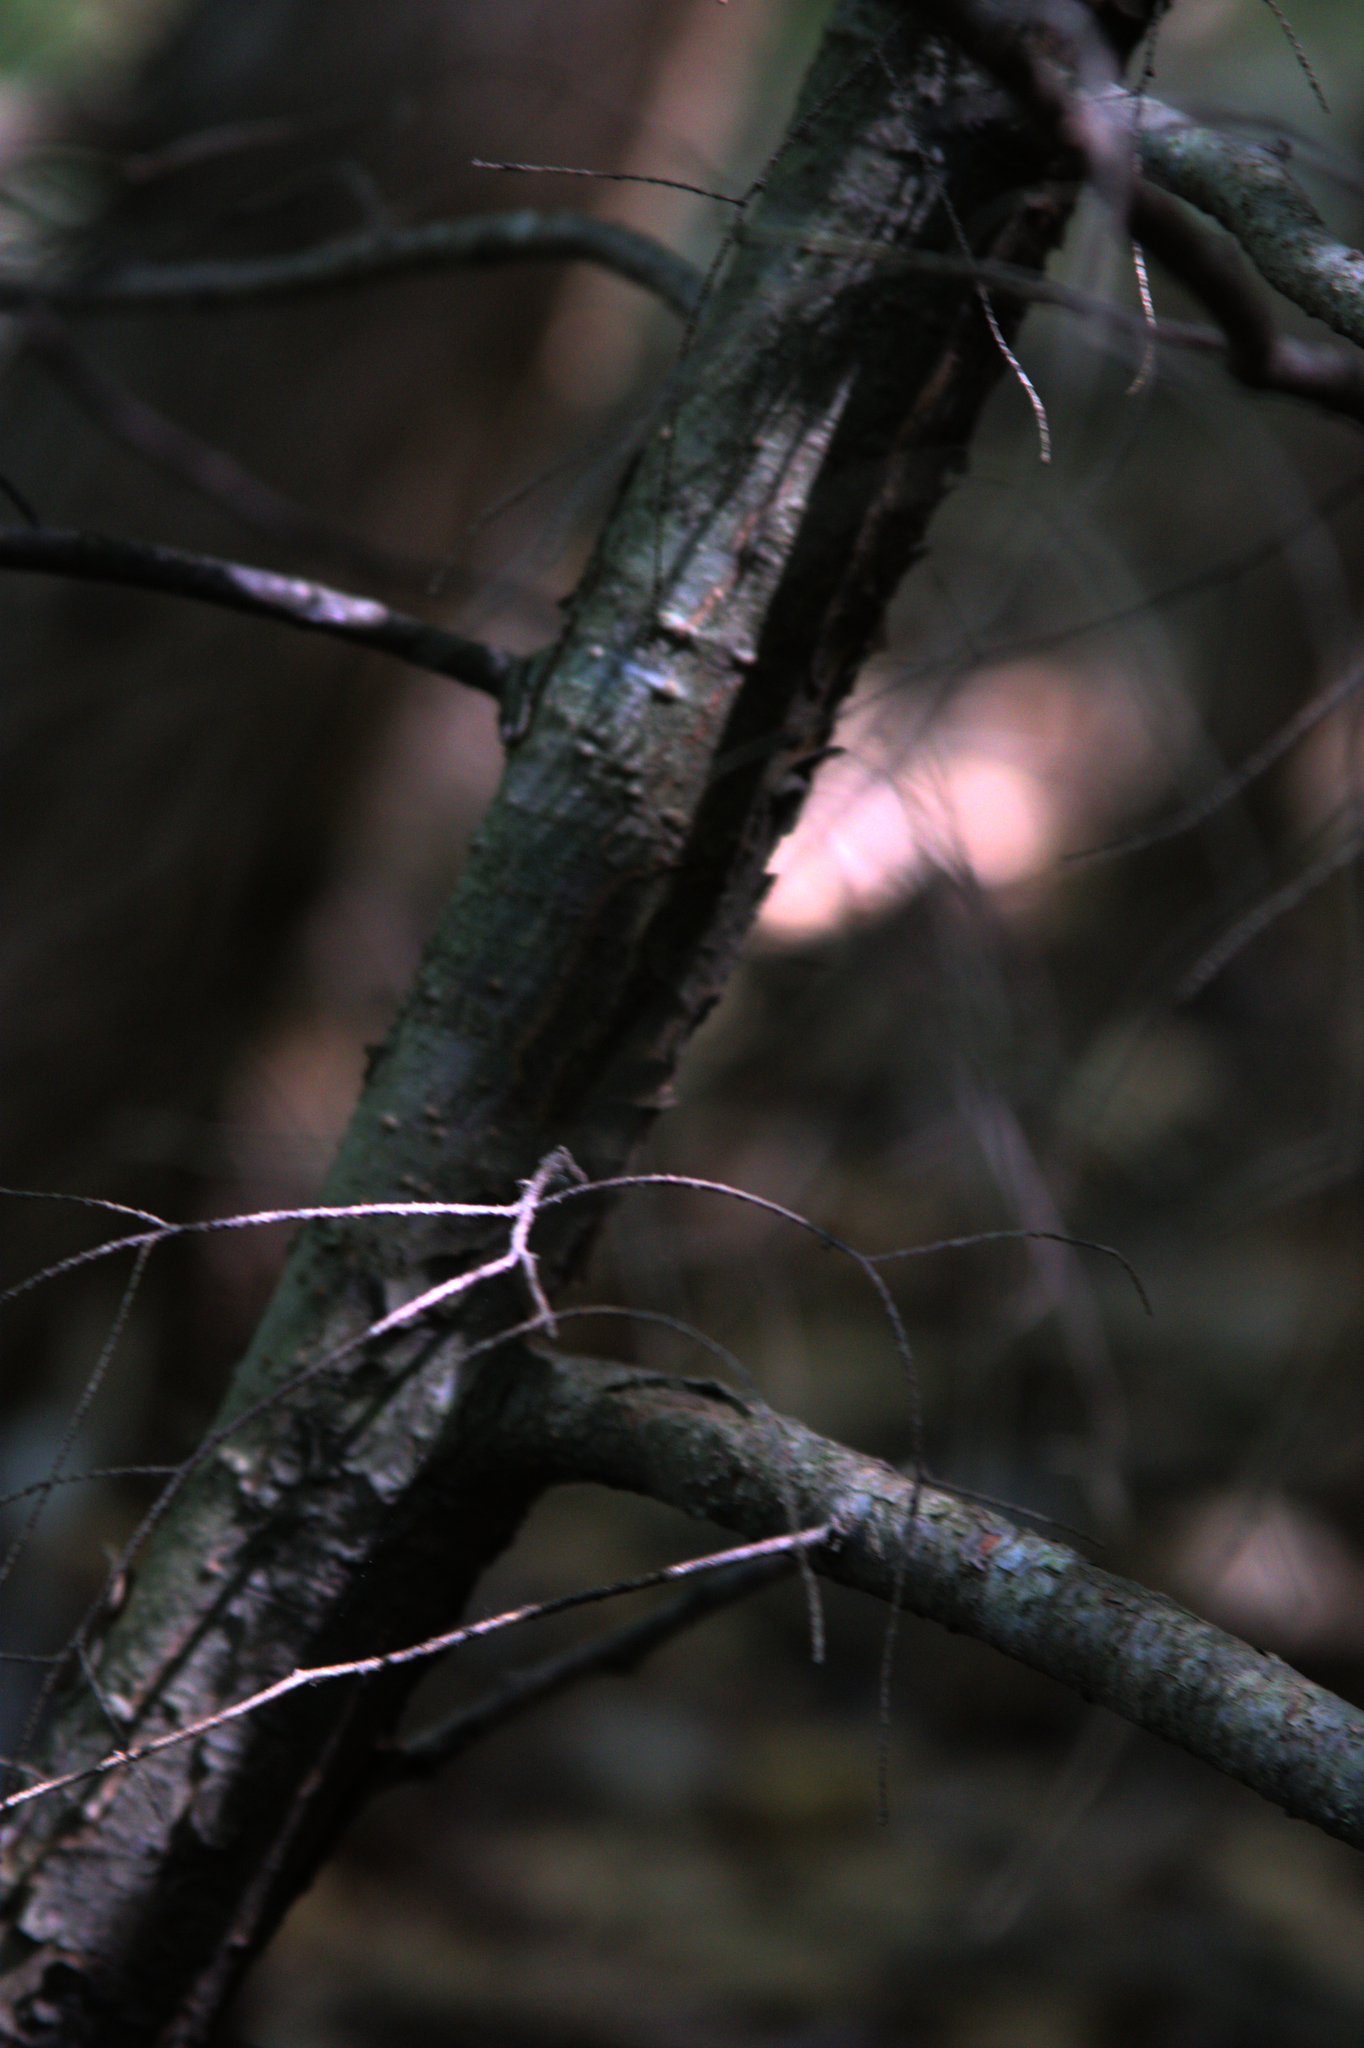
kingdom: Plantae
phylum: Tracheophyta
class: Pinopsida
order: Pinales
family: Pinaceae
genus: Tsuga
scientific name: Tsuga canadensis
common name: Eastern hemlock
